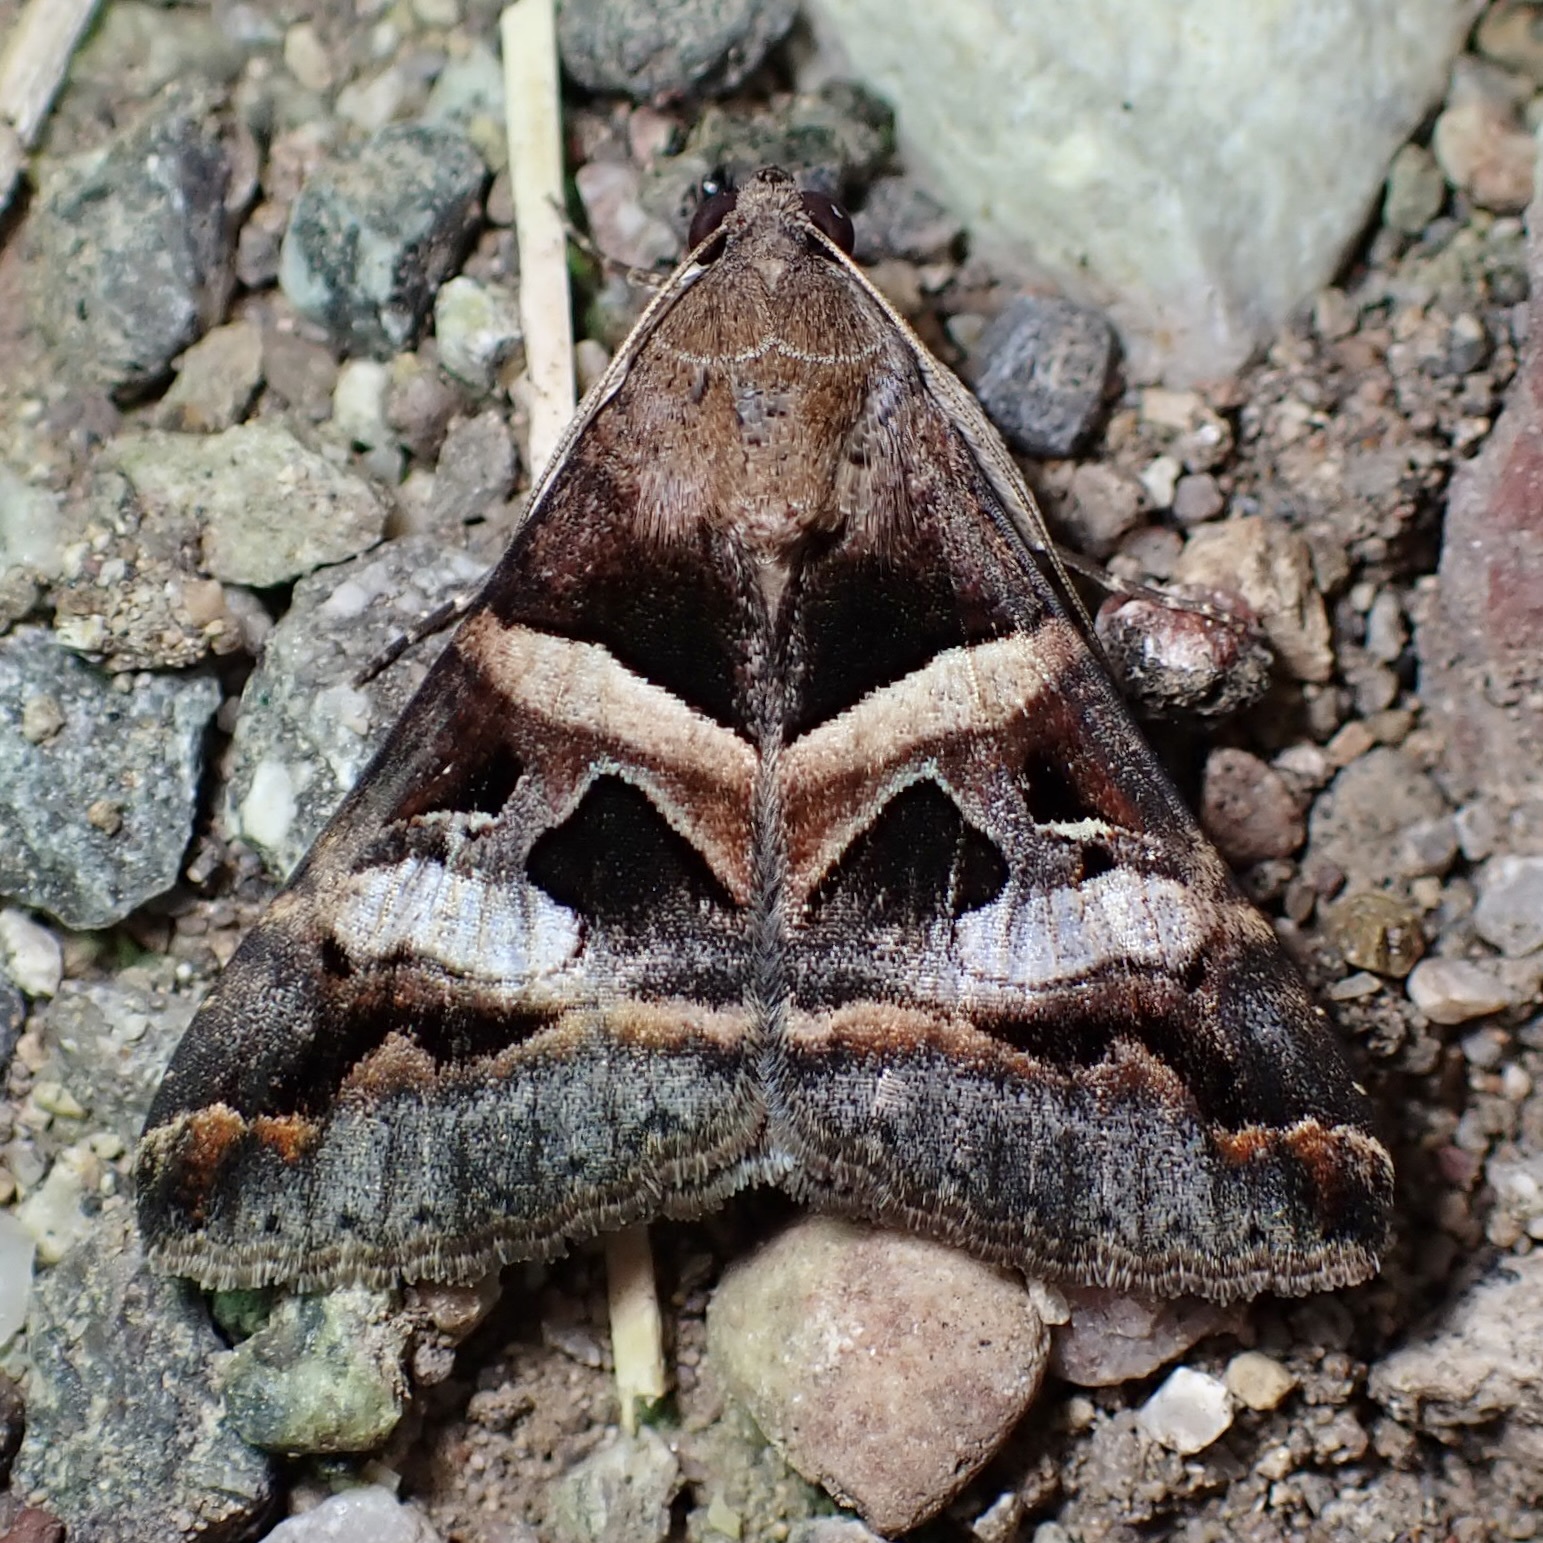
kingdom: Animalia
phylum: Arthropoda
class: Insecta
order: Lepidoptera
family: Erebidae
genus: Melipotis
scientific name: Melipotis perpendicularis
